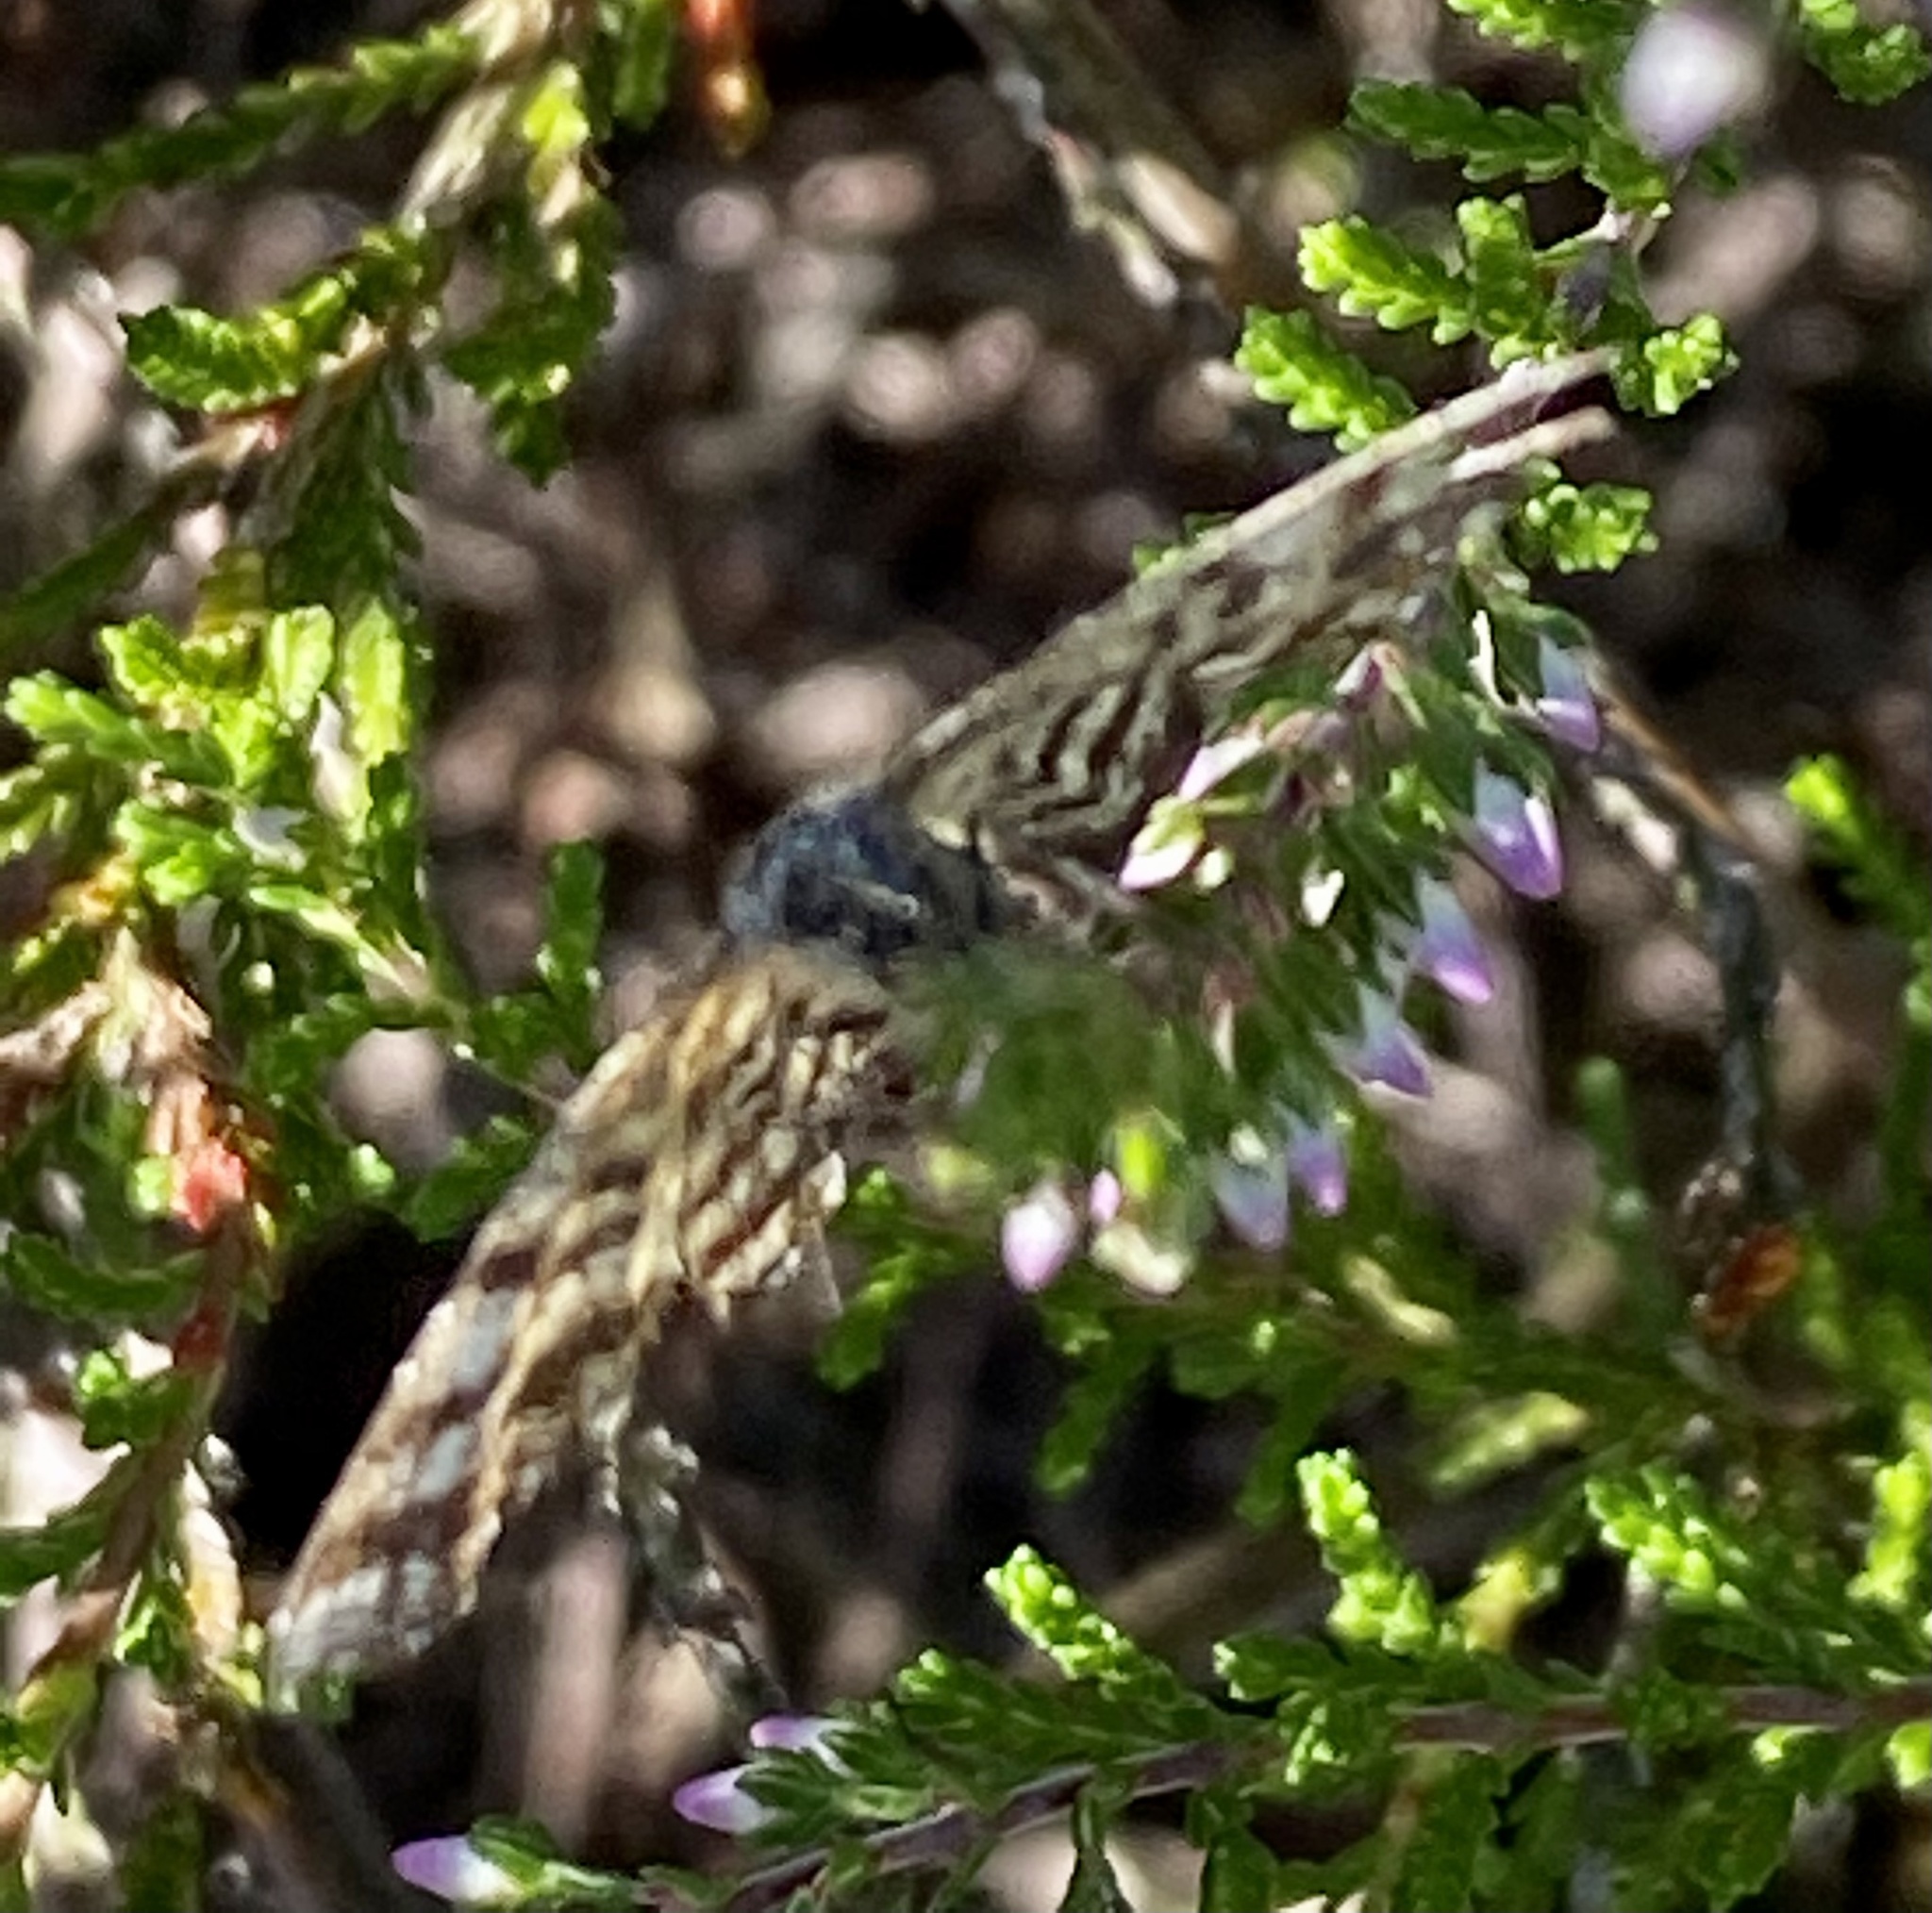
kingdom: Animalia
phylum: Arthropoda
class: Insecta
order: Lepidoptera
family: Geometridae
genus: Ematurga
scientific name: Ematurga atomaria
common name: Common heath
